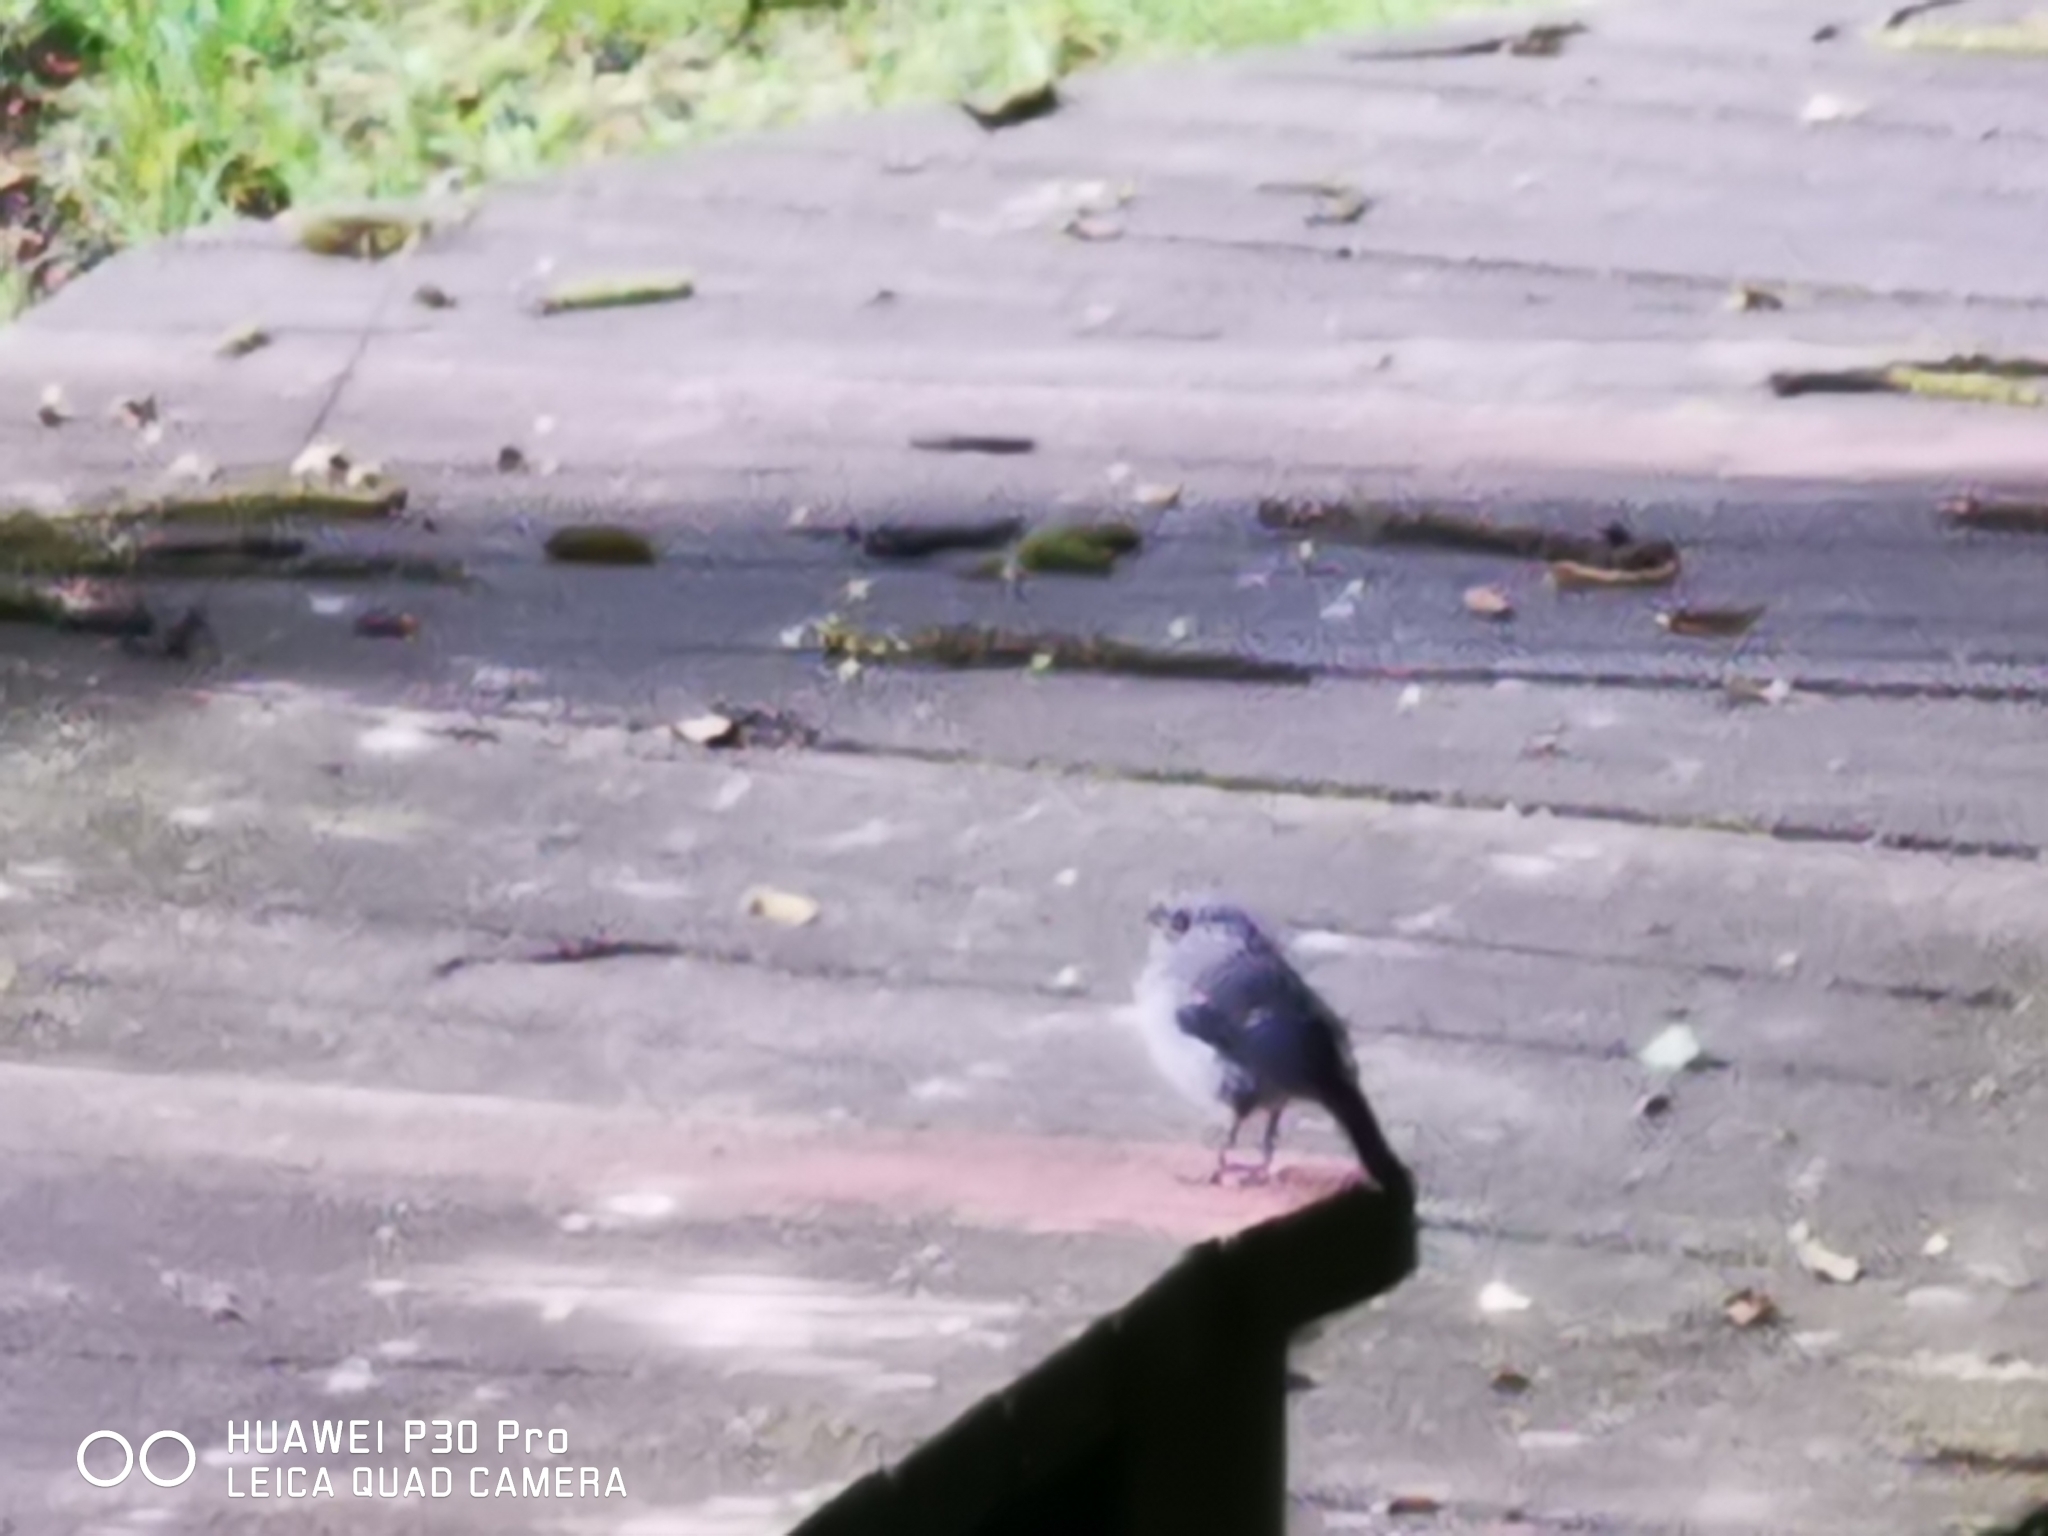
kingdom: Animalia
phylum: Chordata
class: Aves
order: Passeriformes
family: Muscicapidae
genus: Phoenicurus
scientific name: Phoenicurus fuliginosus
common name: Plumbeous water redstart
